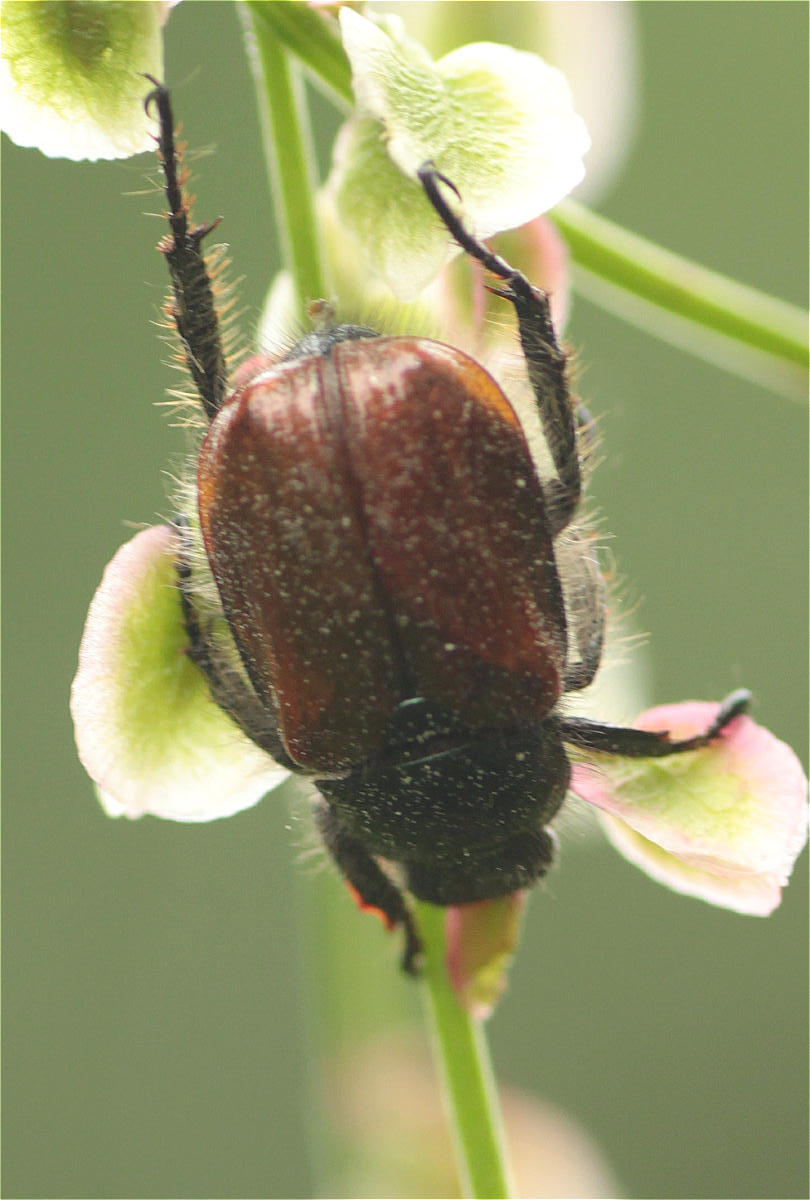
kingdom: Animalia
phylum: Arthropoda
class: Insecta
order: Coleoptera
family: Scarabaeidae
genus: Phyllopertha
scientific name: Phyllopertha horticola
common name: Garden chafer
